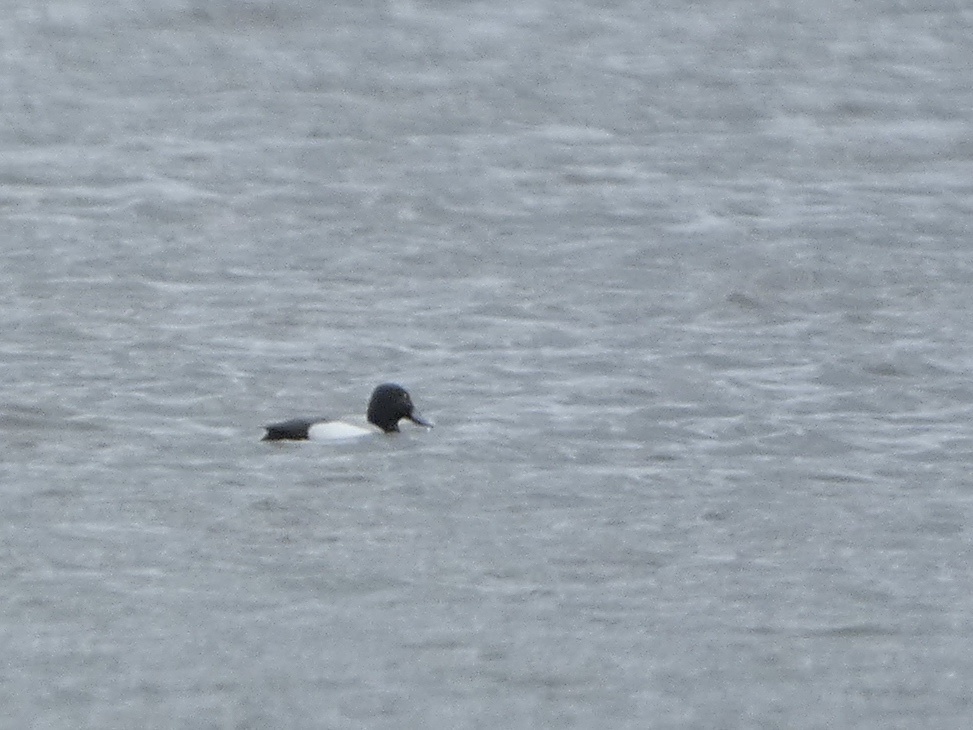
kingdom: Animalia
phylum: Chordata
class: Aves
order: Anseriformes
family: Anatidae
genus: Aythya
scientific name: Aythya affinis
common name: Lesser scaup
